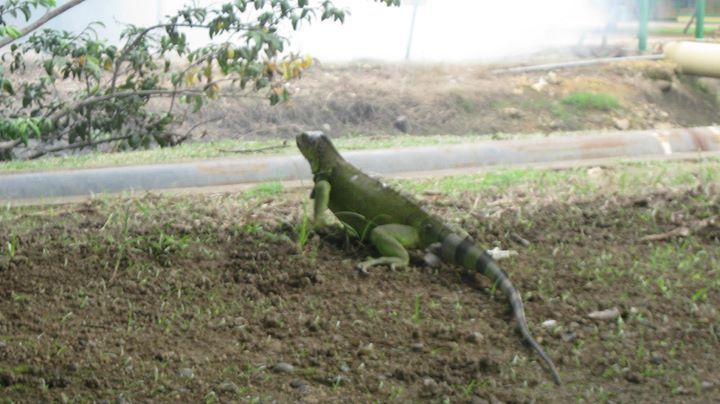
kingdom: Animalia
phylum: Chordata
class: Squamata
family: Iguanidae
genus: Iguana
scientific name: Iguana iguana
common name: Green iguana
